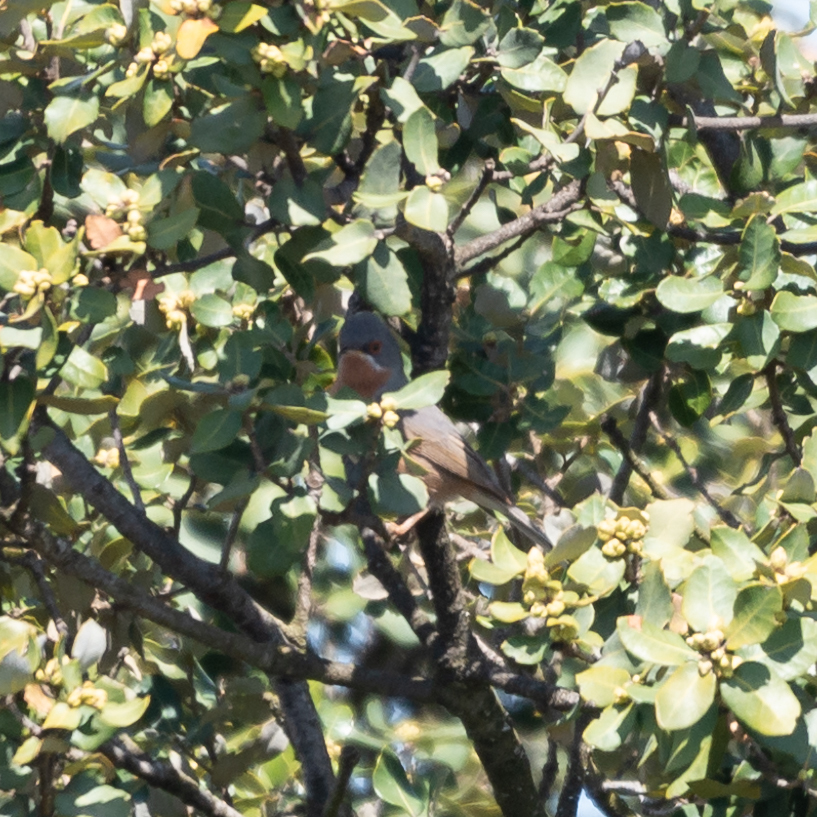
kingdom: Animalia
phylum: Chordata
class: Aves
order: Passeriformes
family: Sylviidae
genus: Curruca
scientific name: Curruca iberiae
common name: Western subalpine warbler
